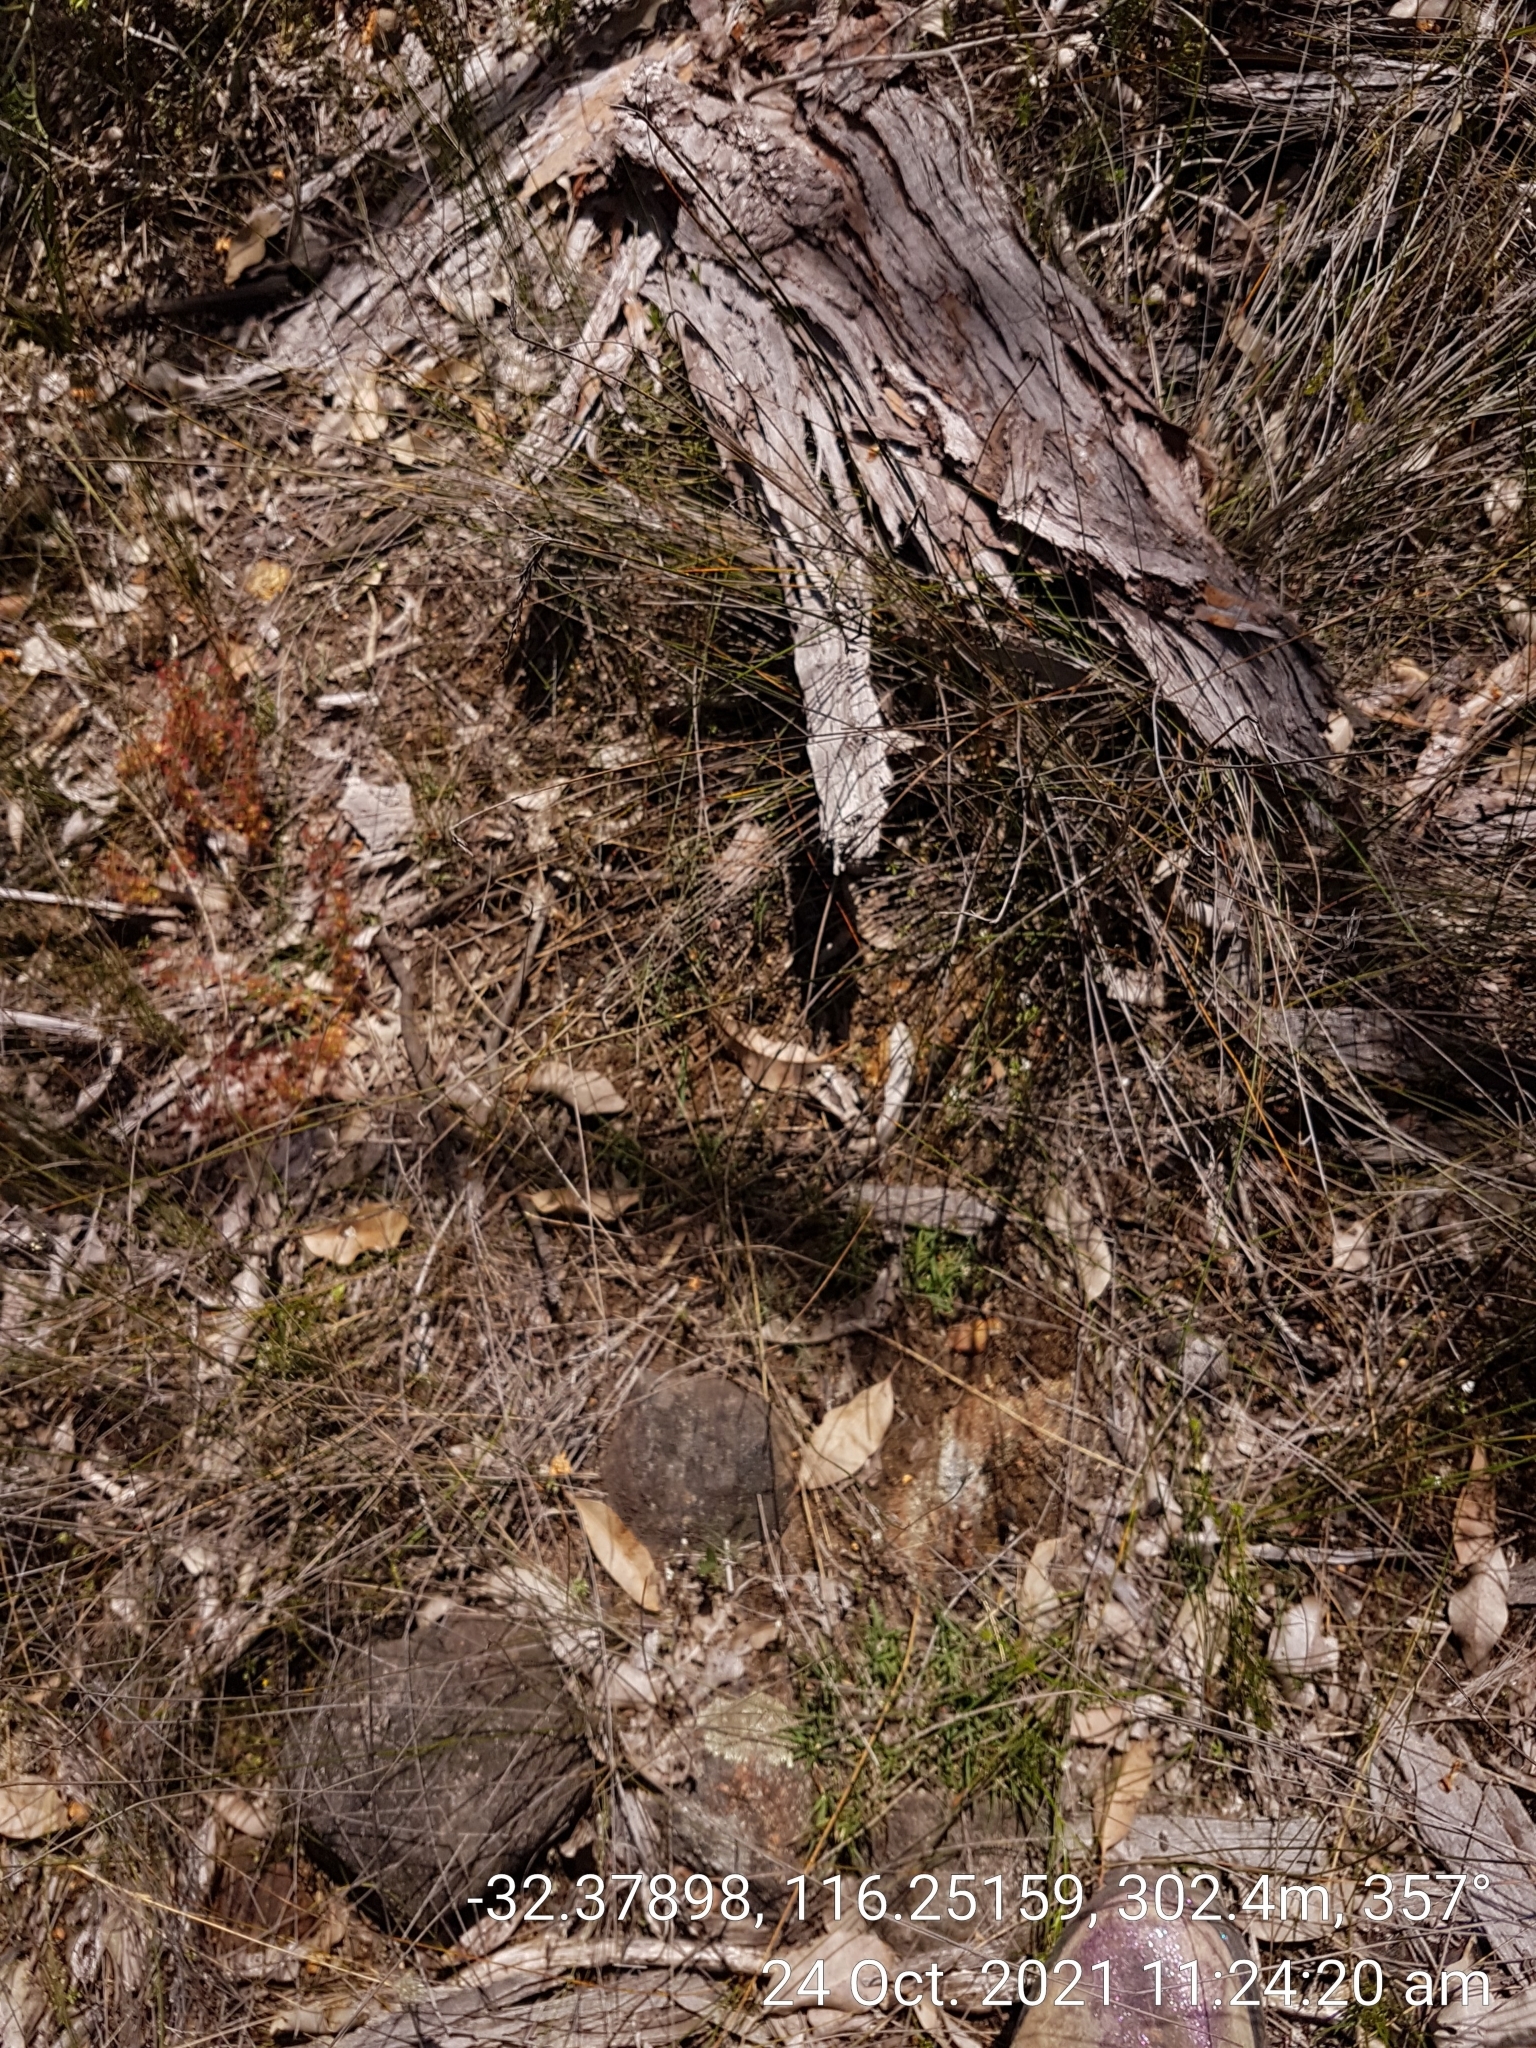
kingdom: Plantae
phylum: Tracheophyta
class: Magnoliopsida
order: Caryophyllales
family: Droseraceae
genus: Drosera
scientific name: Drosera stolonifera
